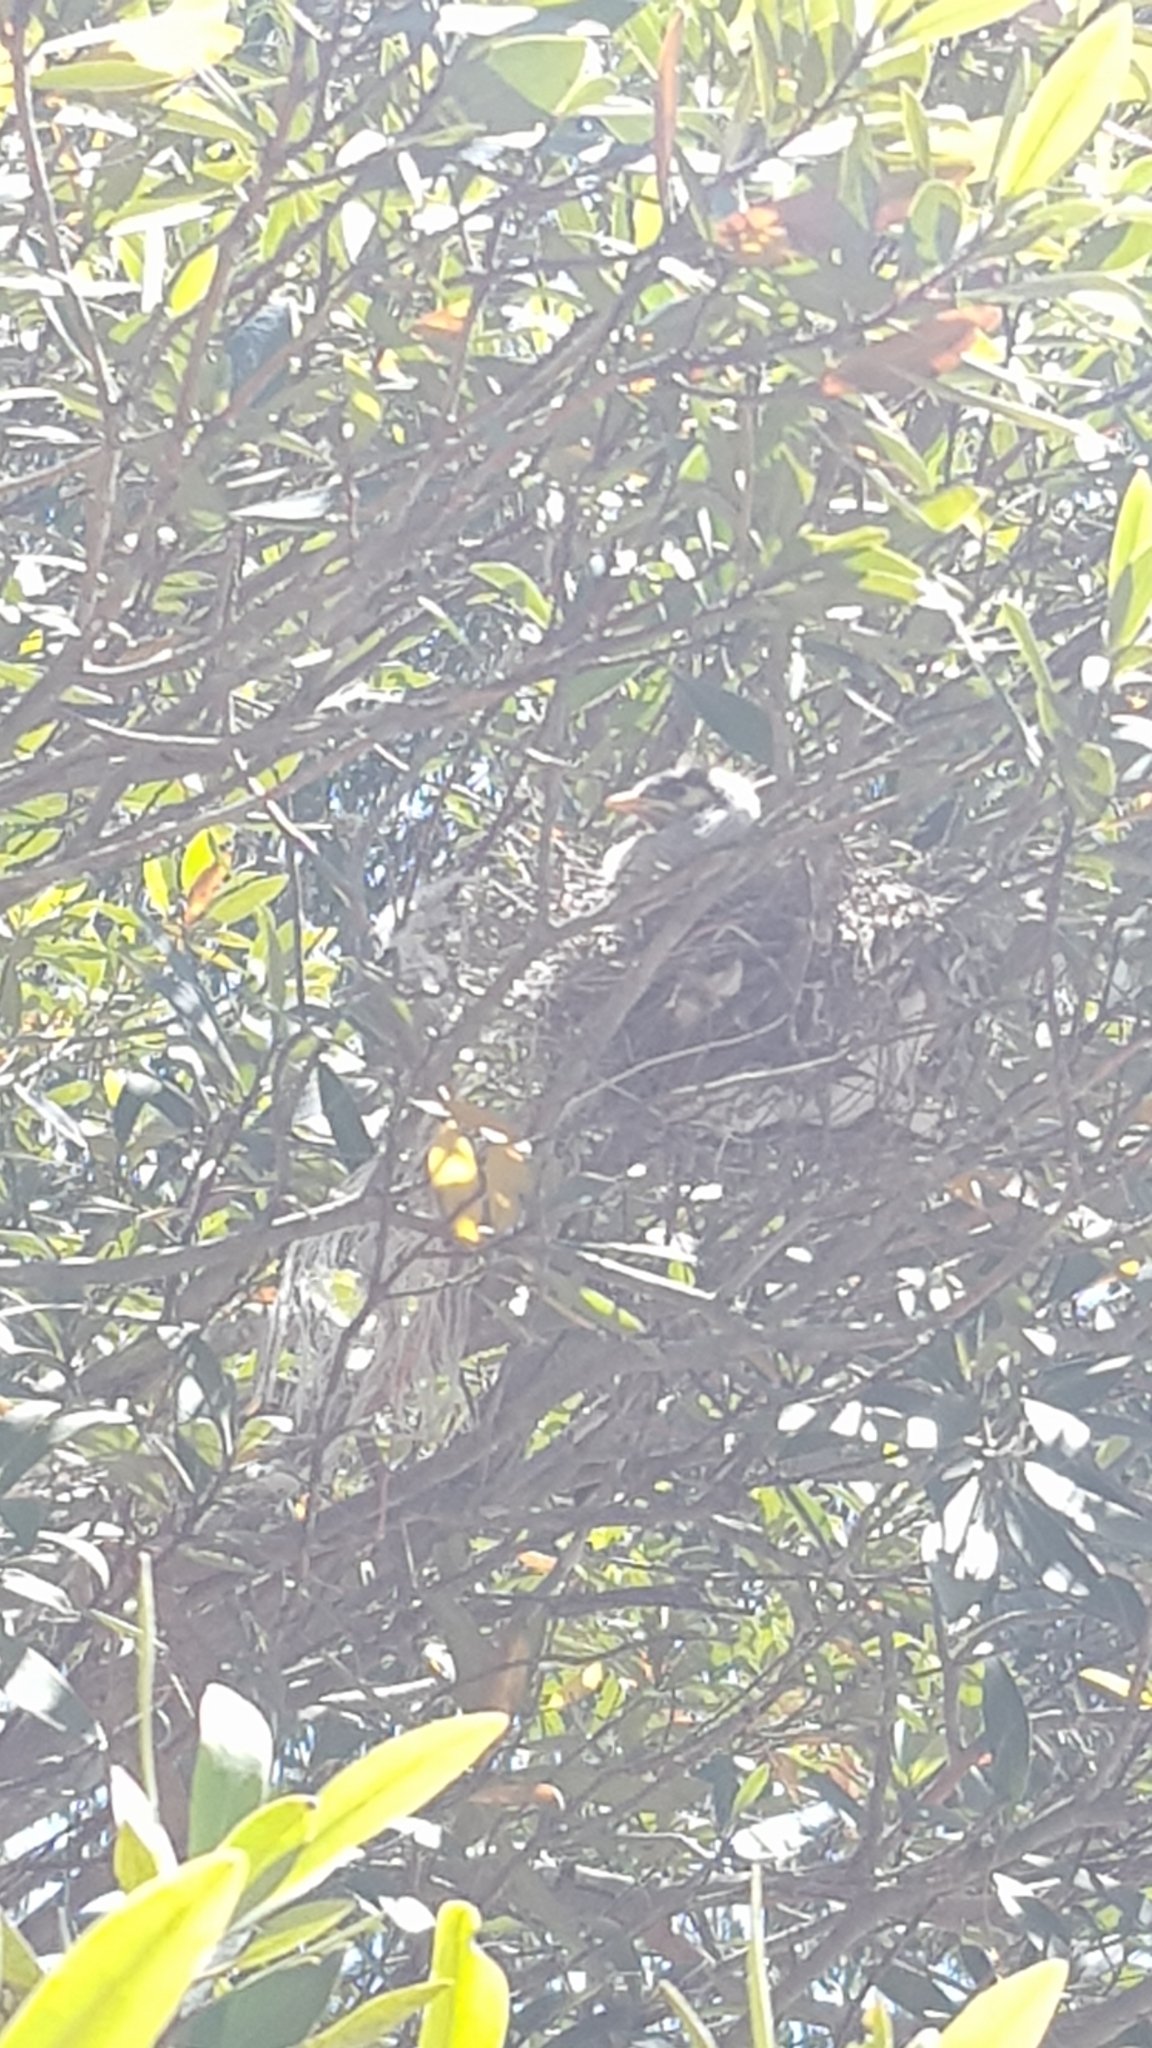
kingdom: Animalia
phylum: Chordata
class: Aves
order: Passeriformes
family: Meliphagidae
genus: Manorina
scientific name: Manorina melanocephala
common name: Noisy miner
